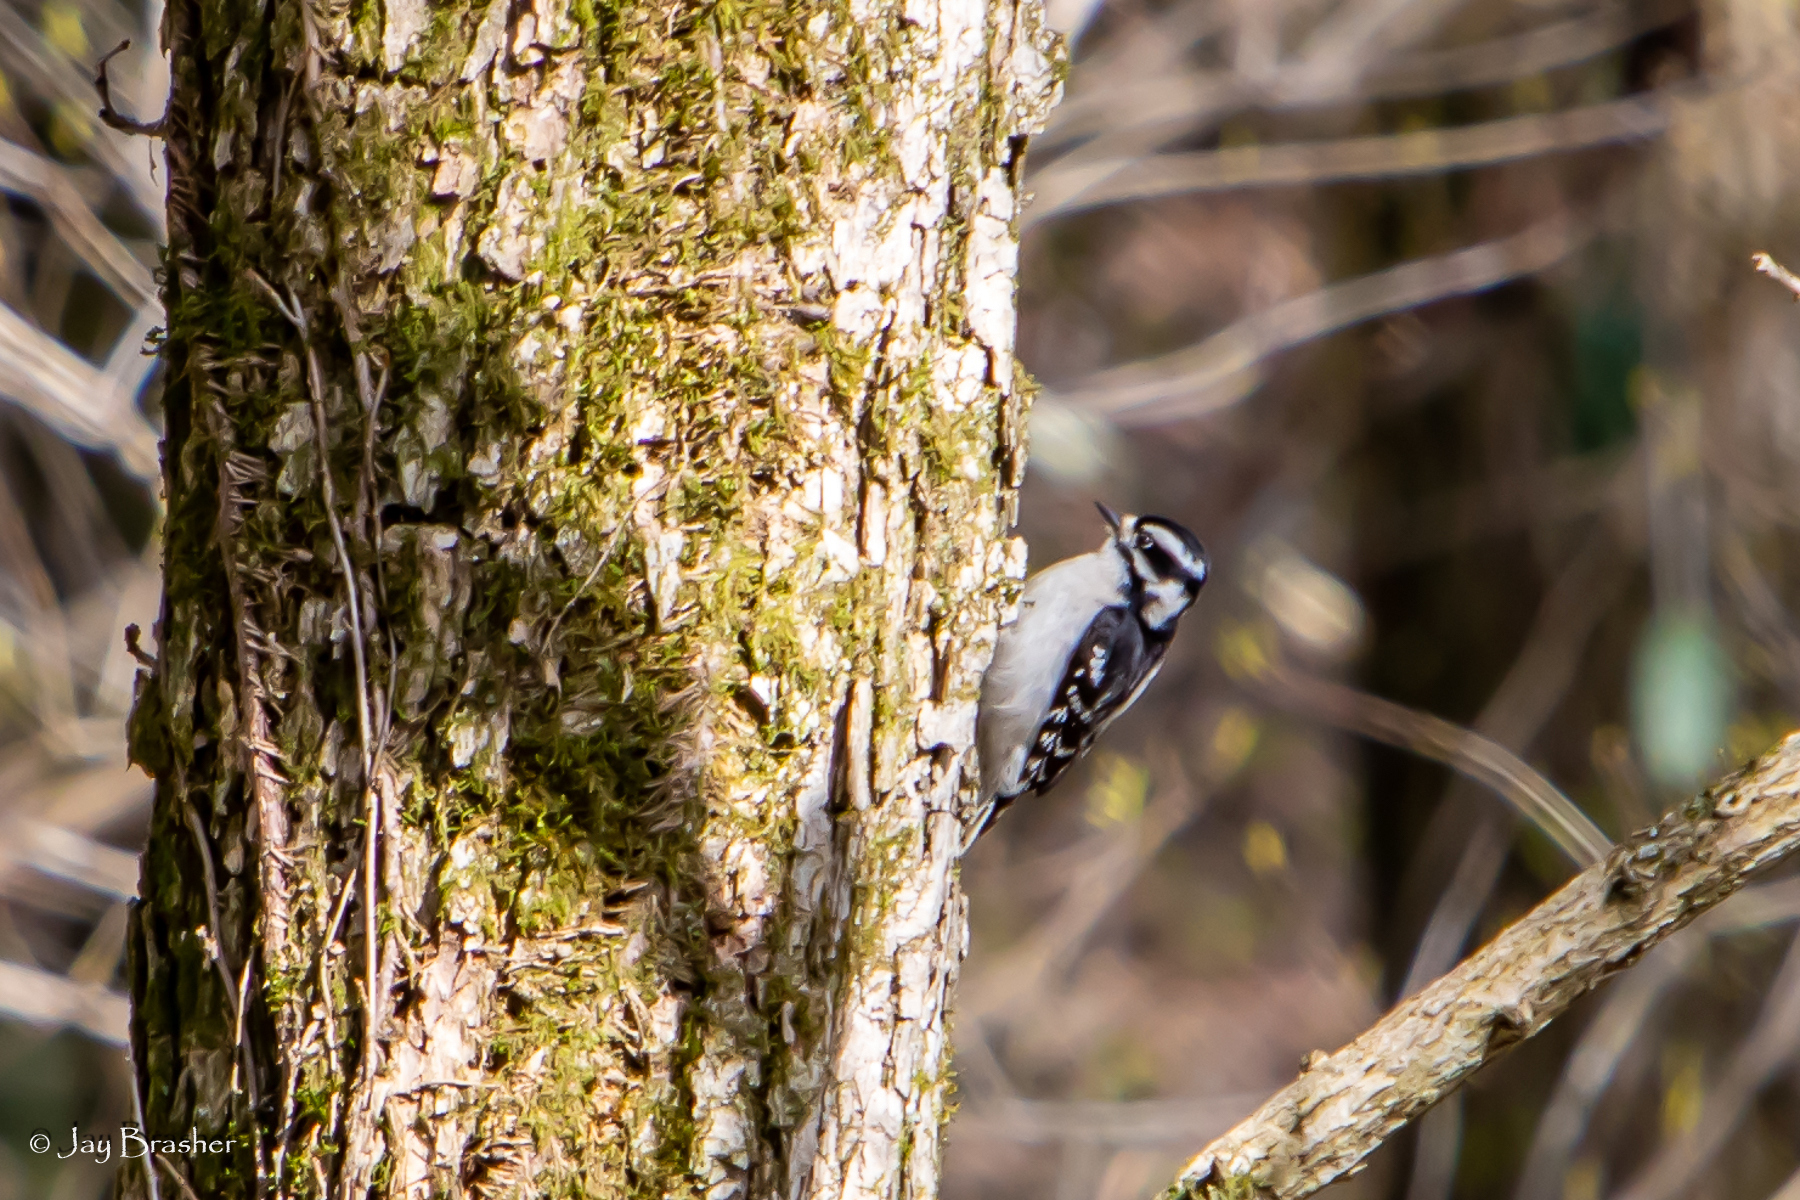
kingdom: Animalia
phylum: Chordata
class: Aves
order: Piciformes
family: Picidae
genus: Dryobates
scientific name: Dryobates pubescens
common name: Downy woodpecker
